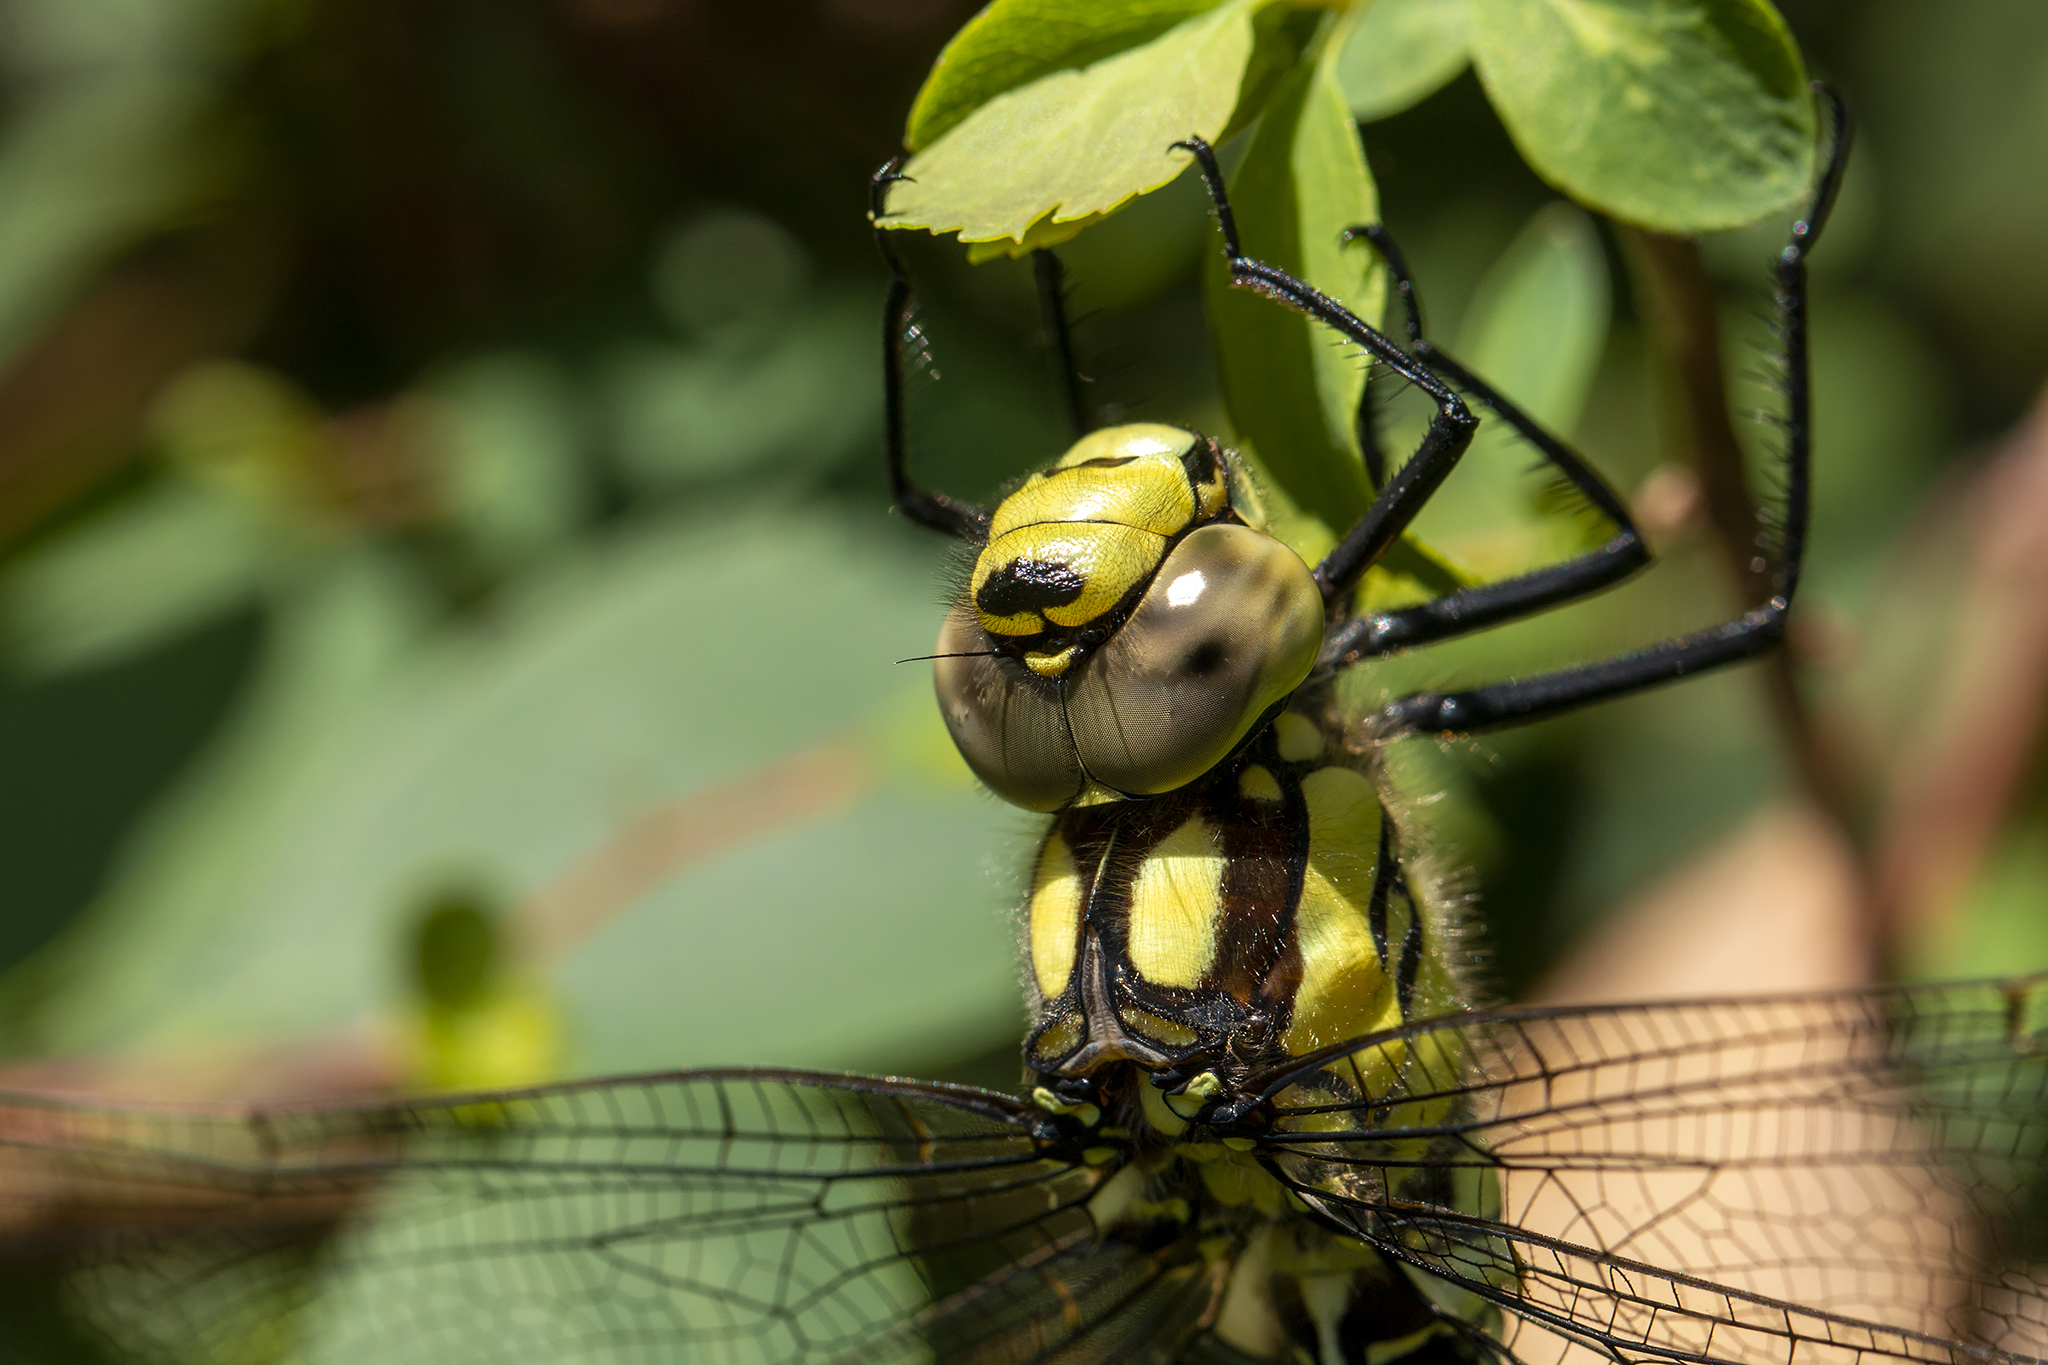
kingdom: Animalia
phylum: Arthropoda
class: Insecta
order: Odonata
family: Aeshnidae
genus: Aeshna
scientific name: Aeshna cyanea
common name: Southern hawker
